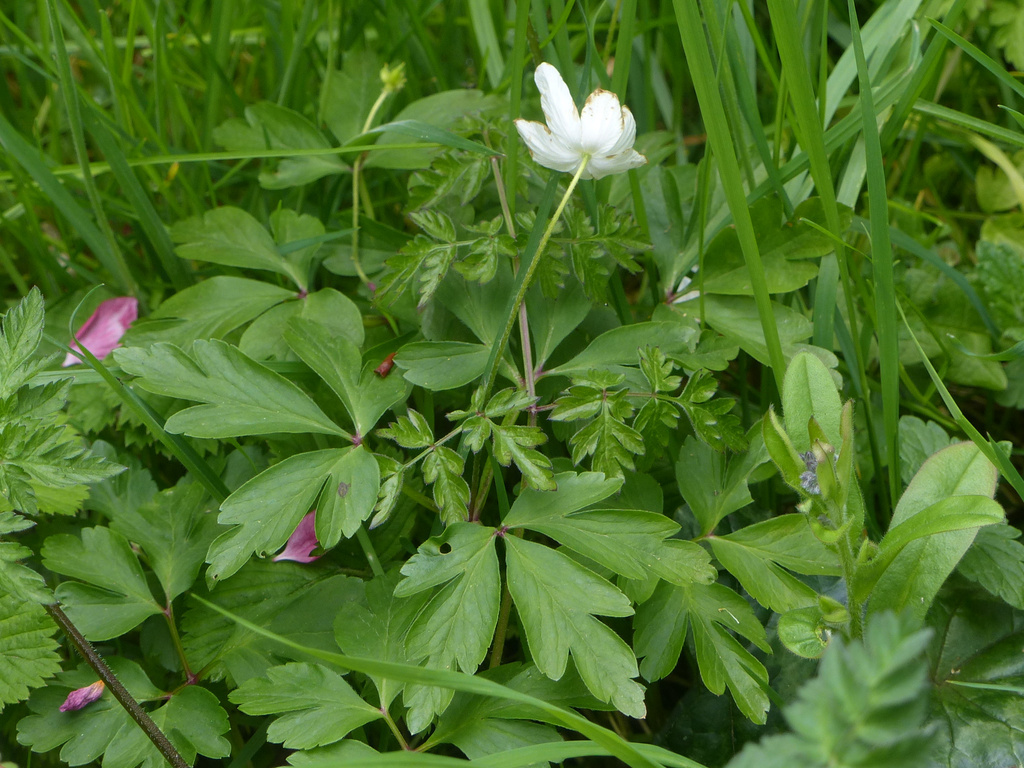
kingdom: Plantae
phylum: Tracheophyta
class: Magnoliopsida
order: Ranunculales
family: Ranunculaceae
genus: Anemone
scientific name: Anemone nemorosa
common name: Wood anemone
